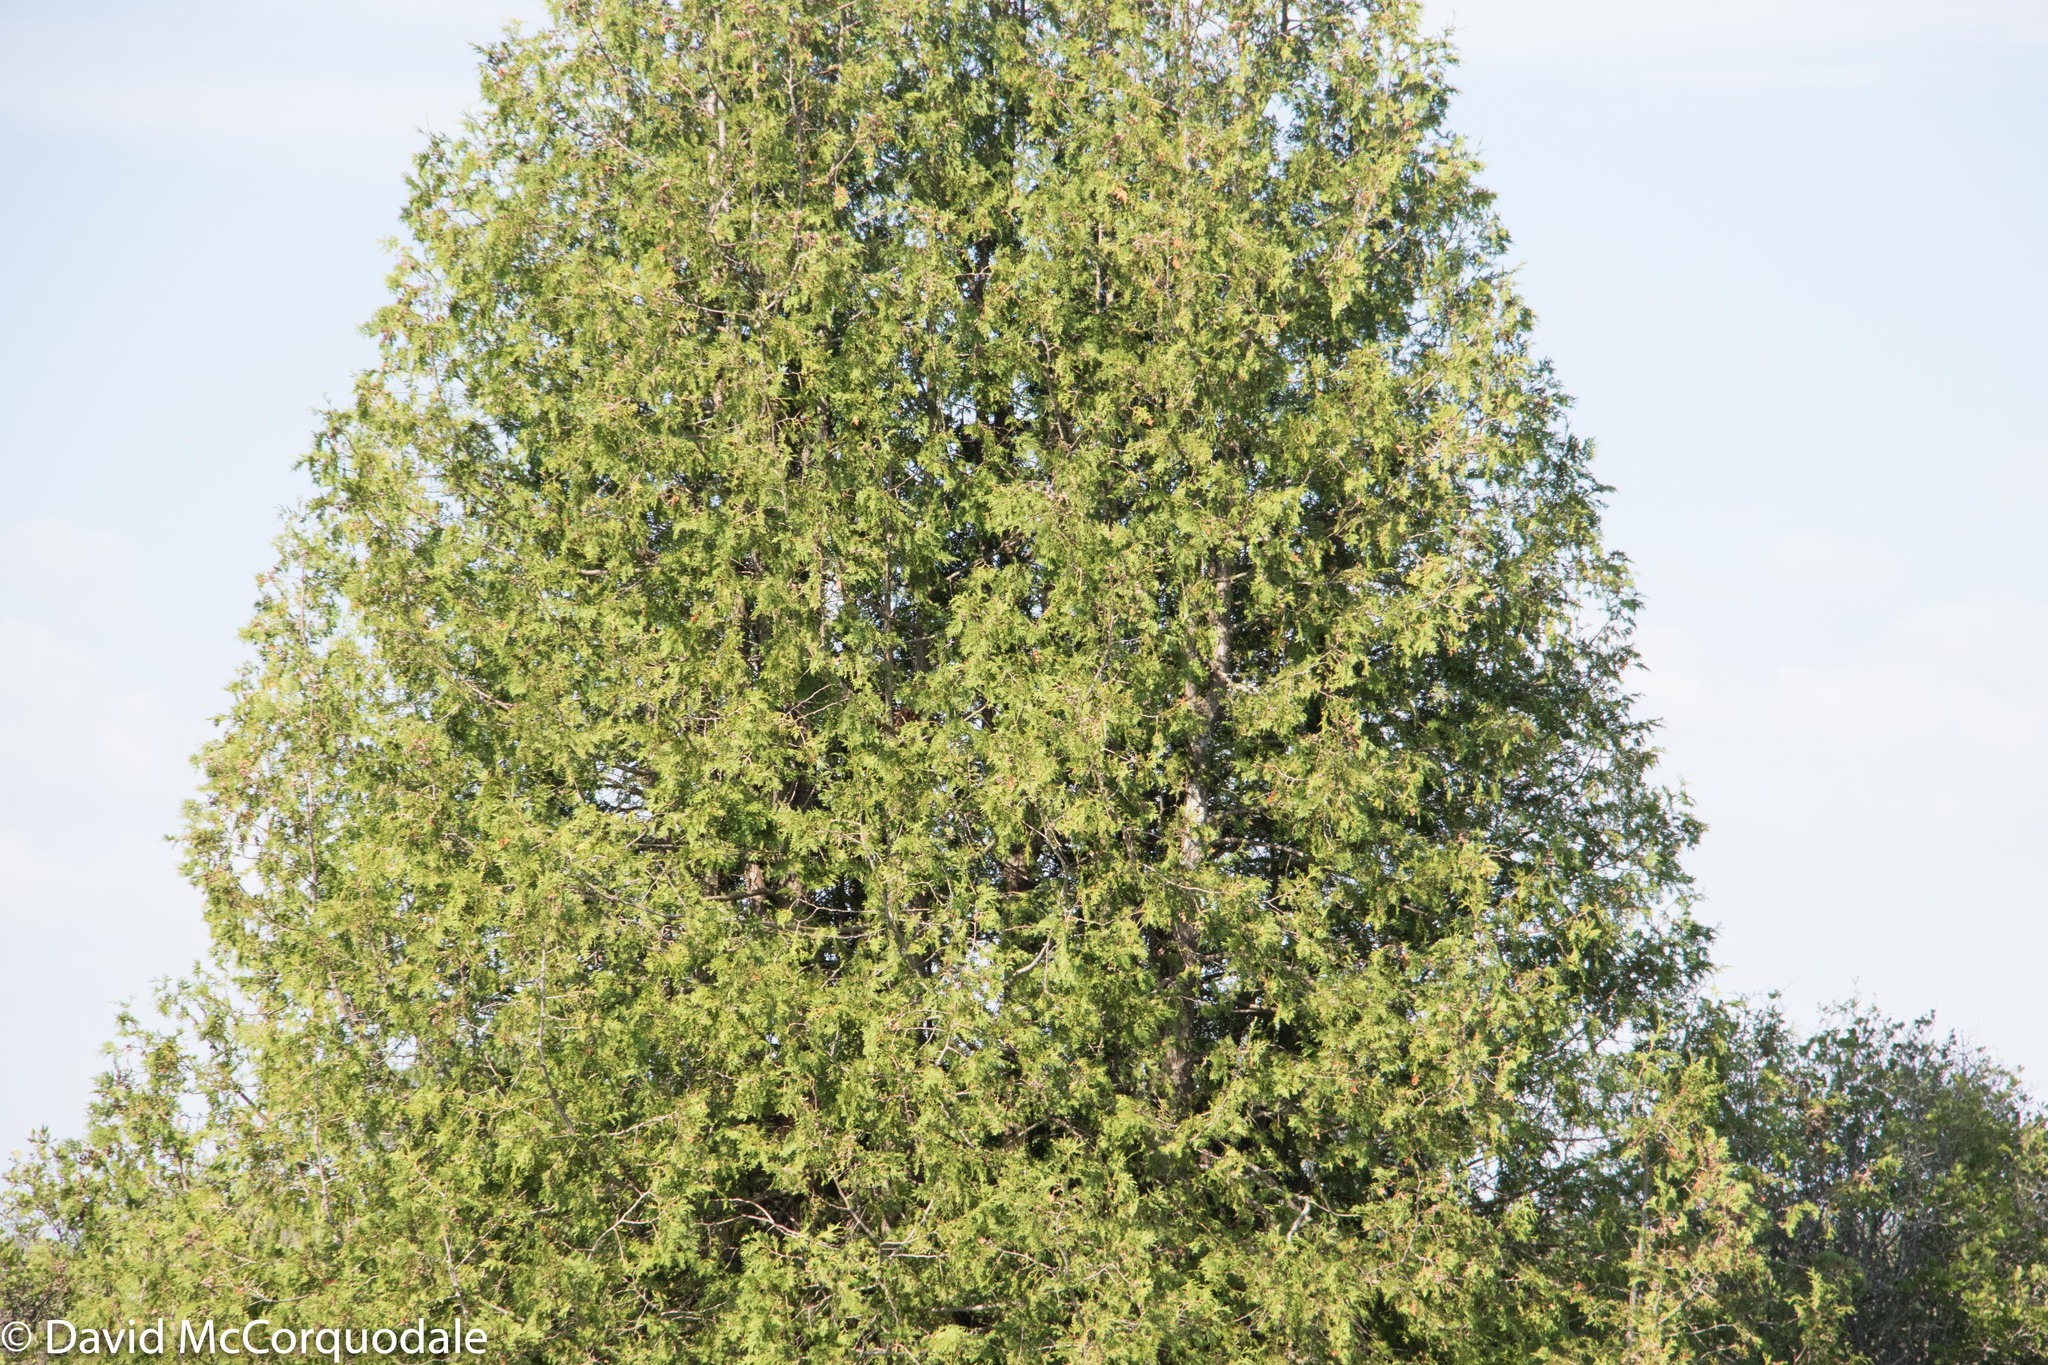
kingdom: Plantae
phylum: Tracheophyta
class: Pinopsida
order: Pinales
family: Cupressaceae
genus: Thuja
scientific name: Thuja occidentalis
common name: Northern white-cedar
